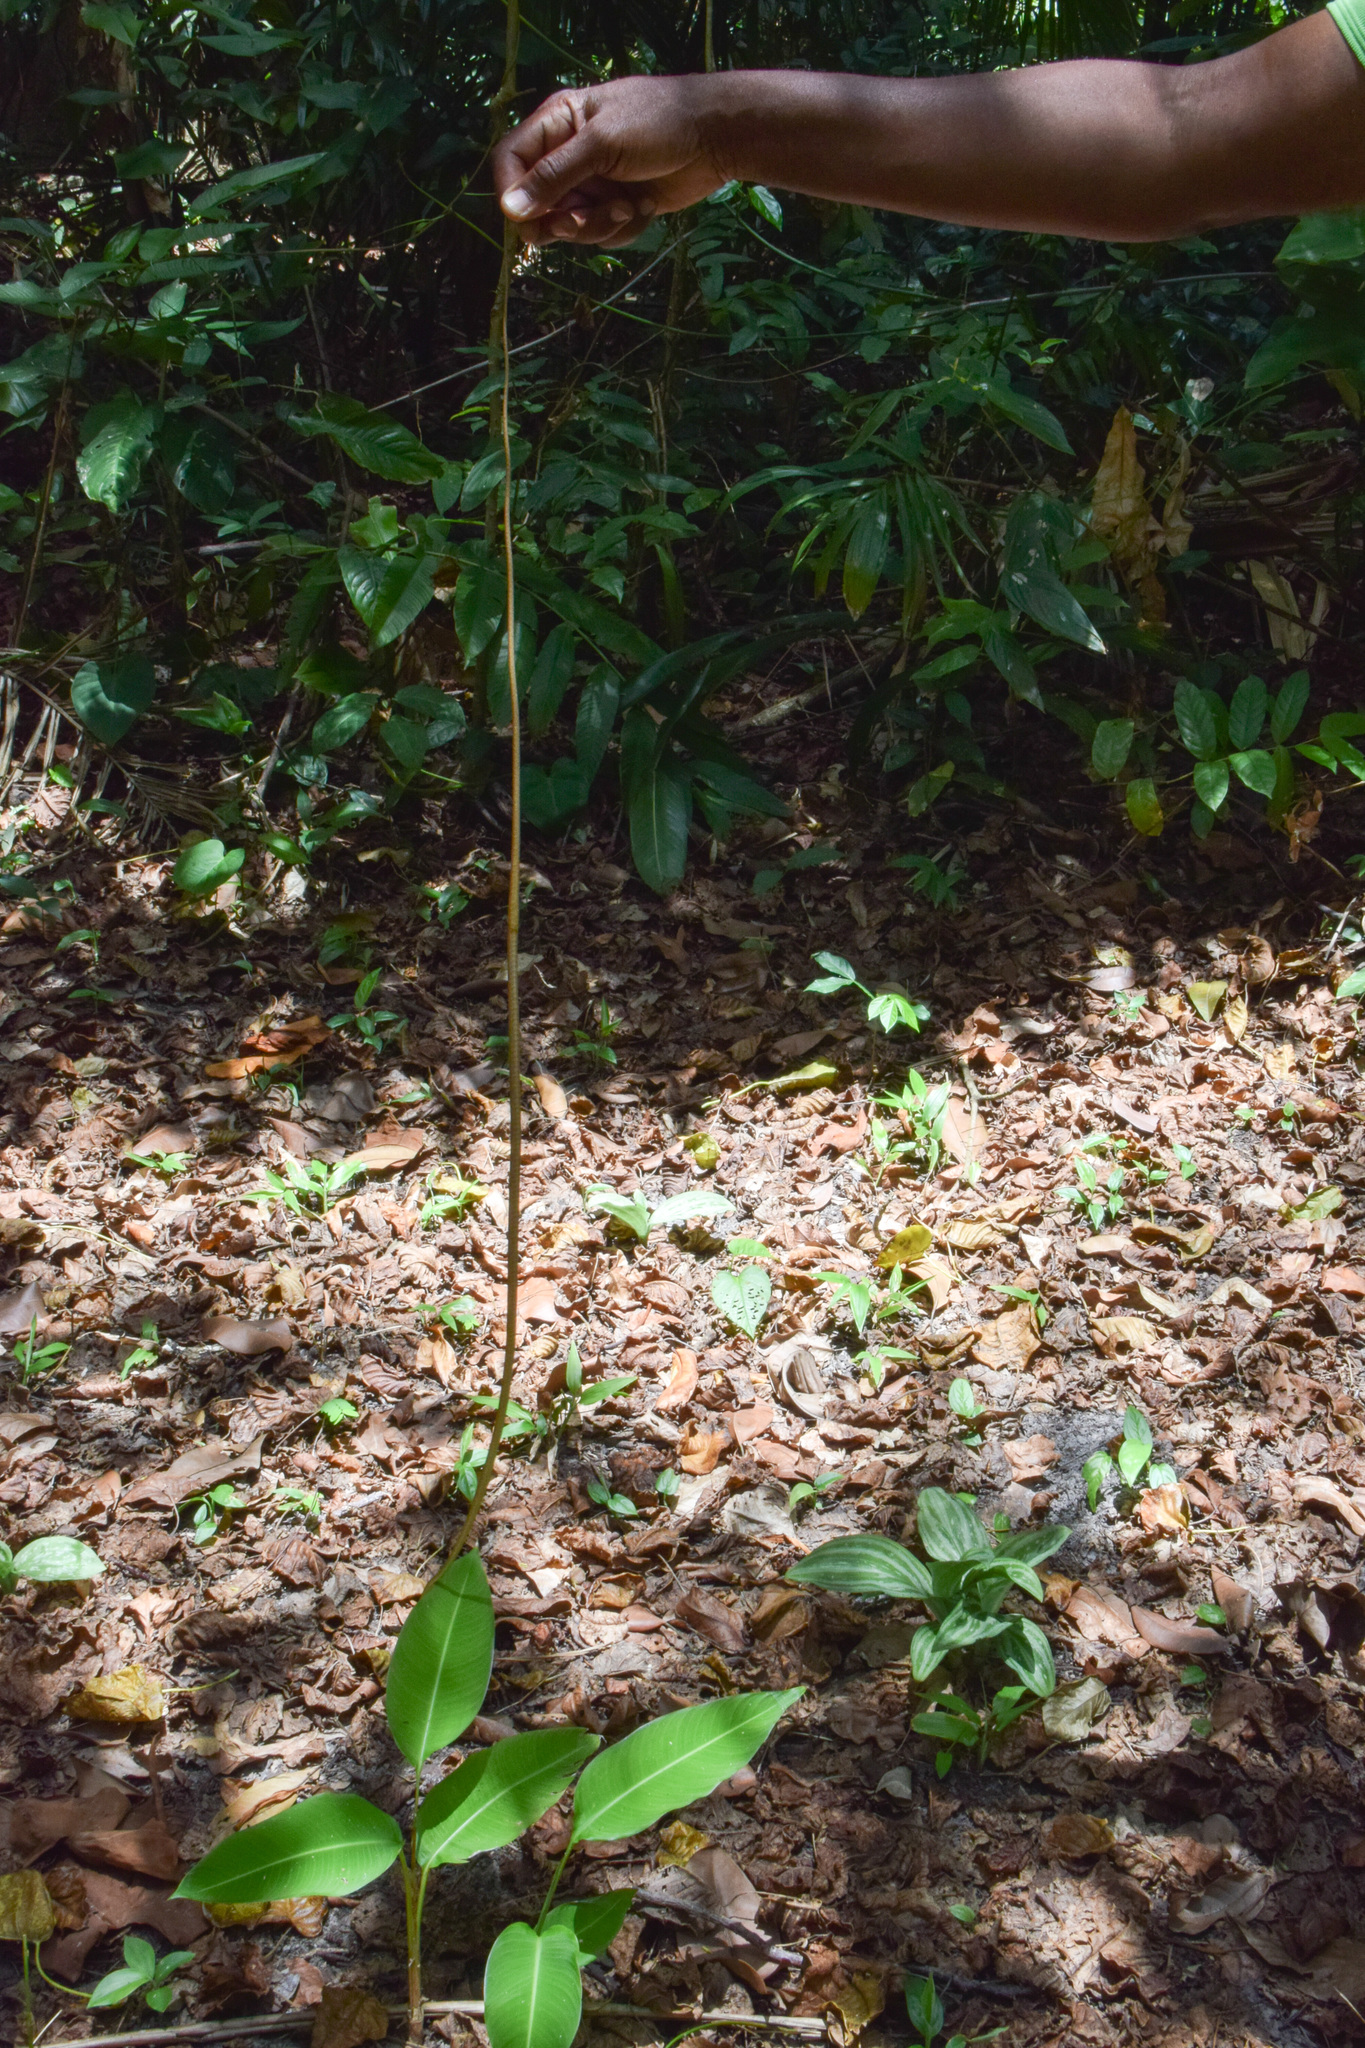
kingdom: Animalia
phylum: Chordata
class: Squamata
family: Colubridae
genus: Oxybelis
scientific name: Oxybelis rutherfordi
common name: Rutherford’s vine snake
